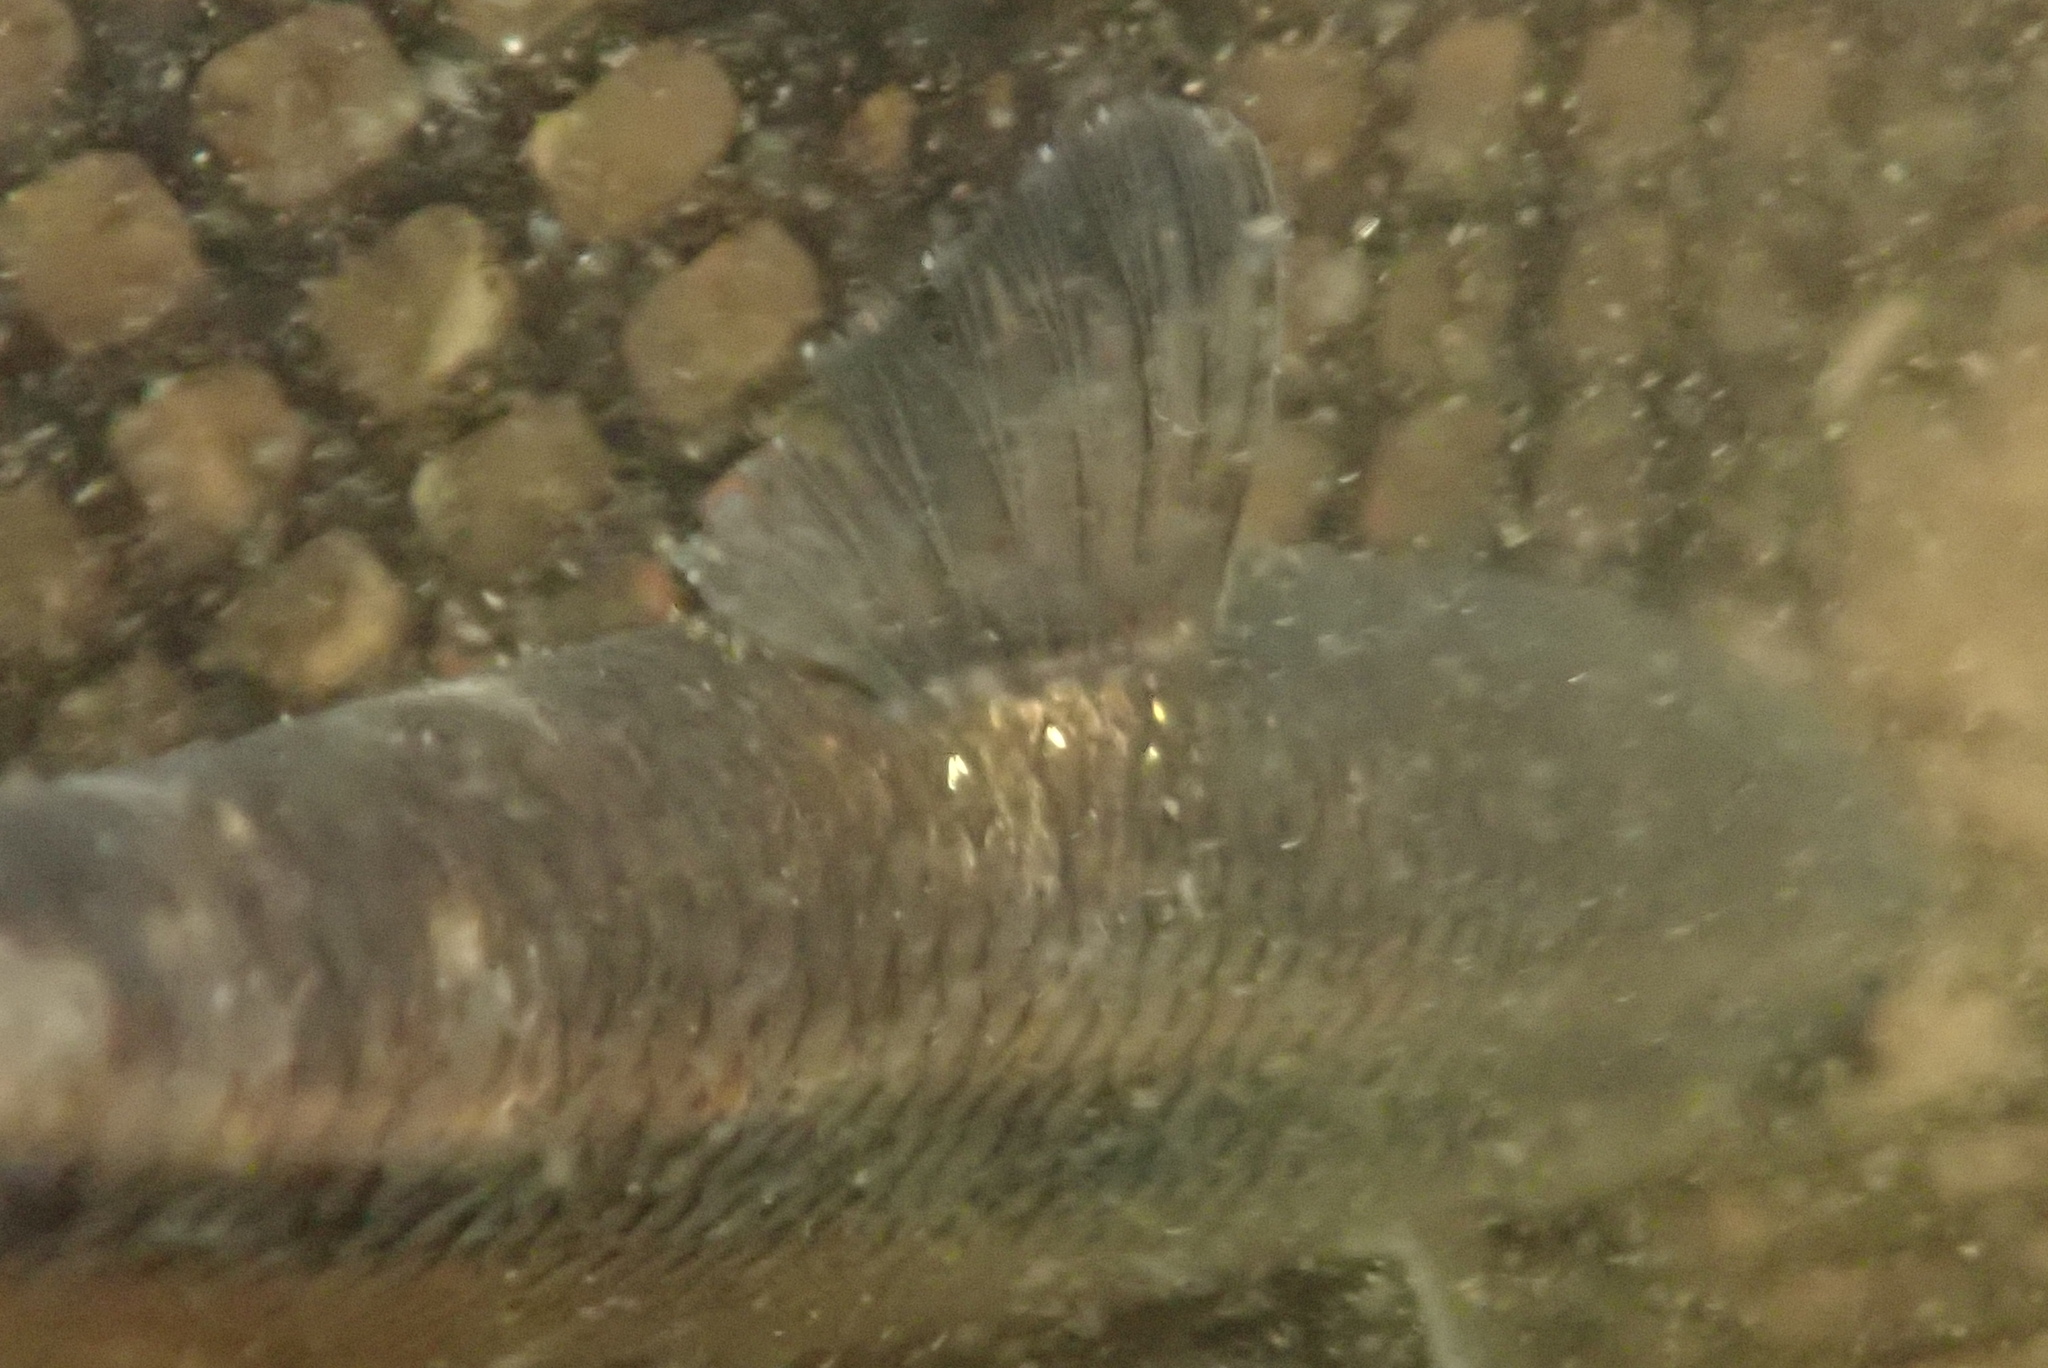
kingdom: Animalia
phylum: Chordata
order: Cypriniformes
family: Cyprinidae
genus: Semotilus
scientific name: Semotilus corporalis
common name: Fallfish
